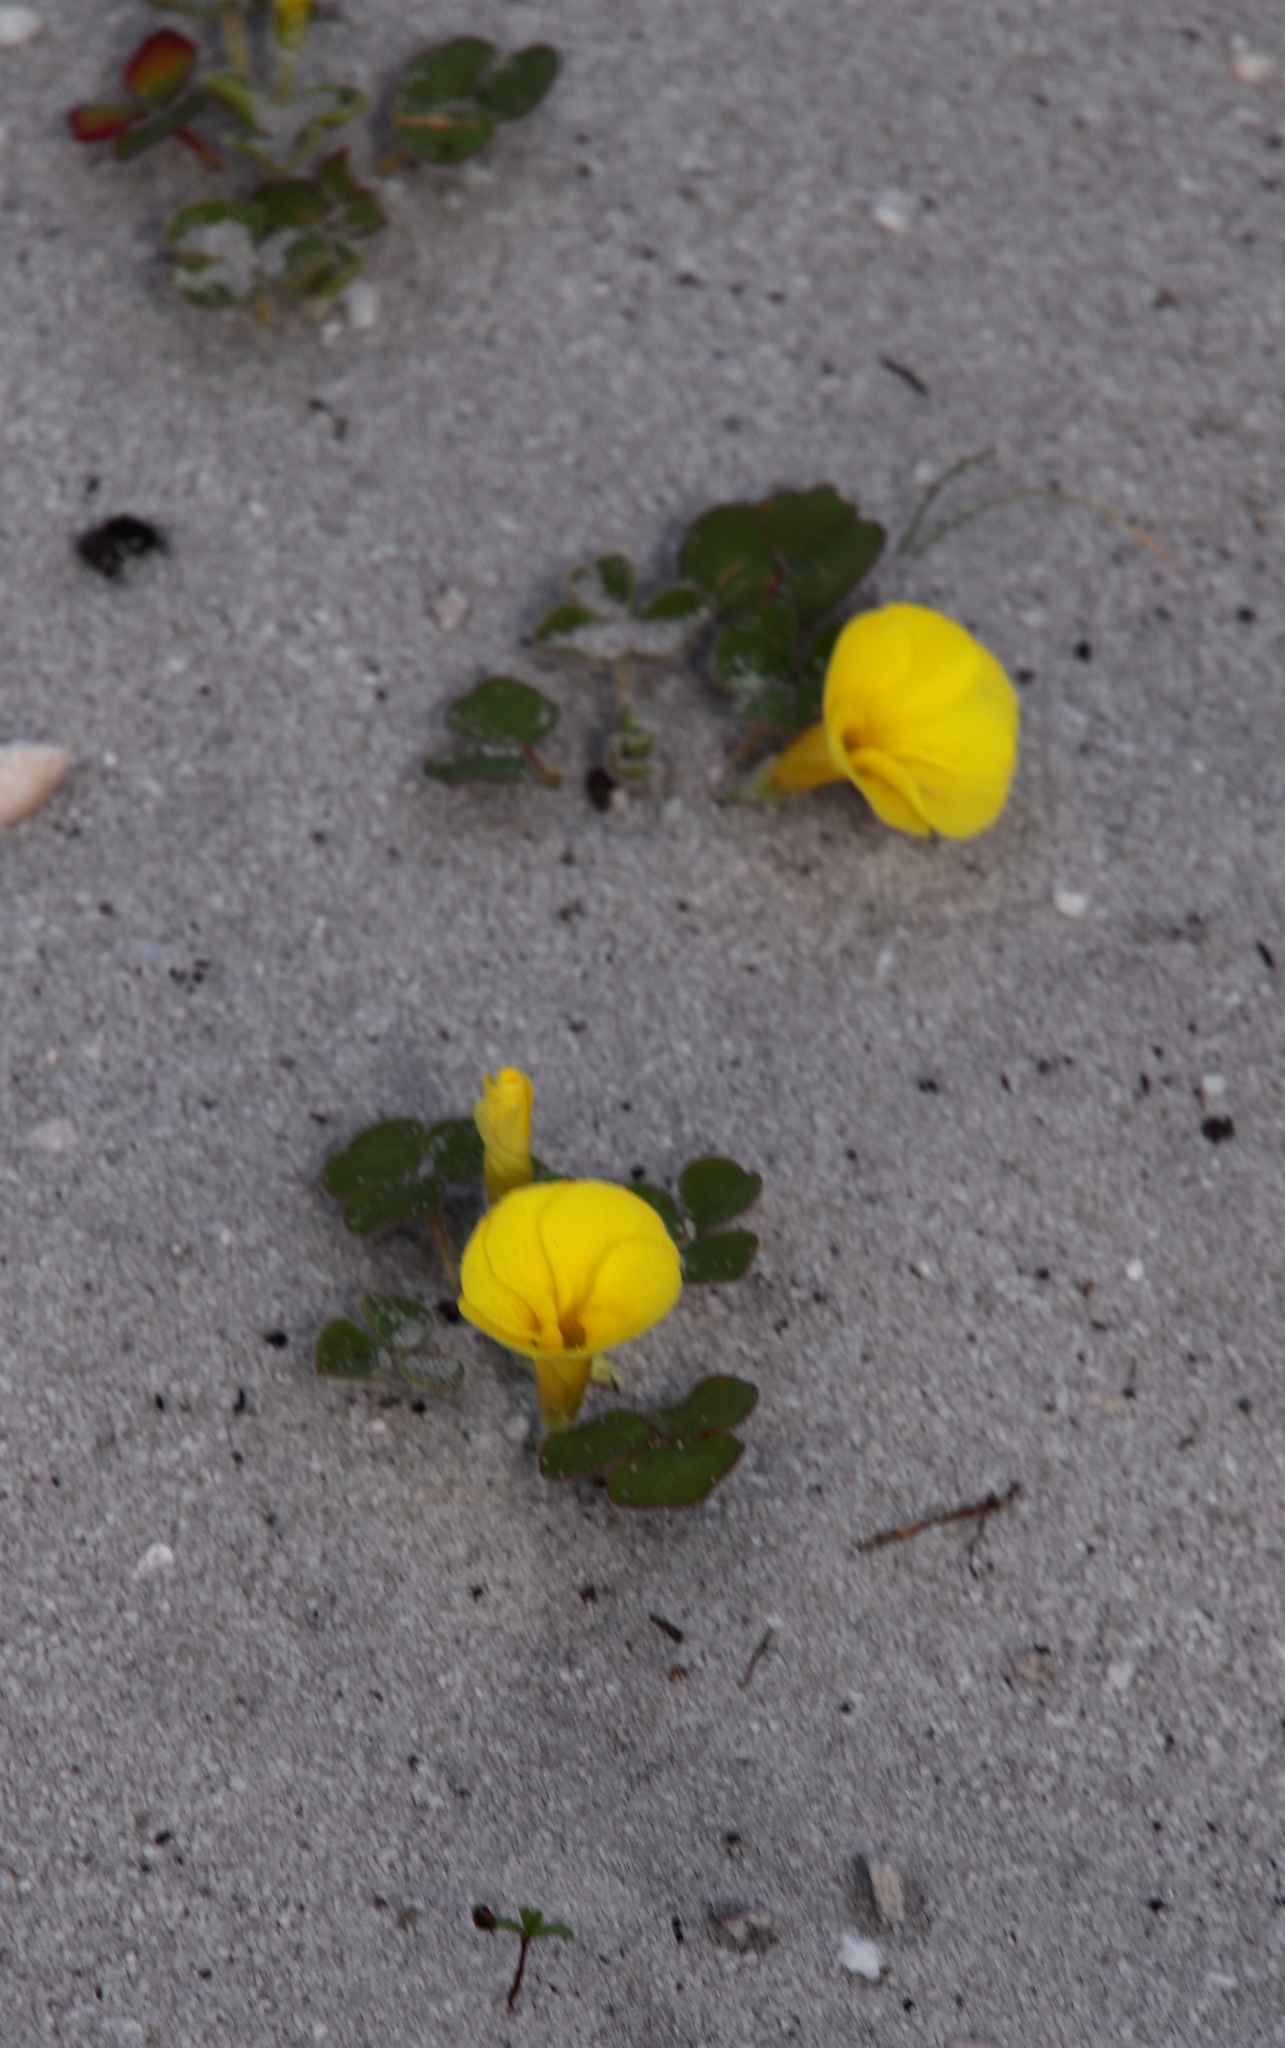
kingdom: Plantae
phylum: Tracheophyta
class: Magnoliopsida
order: Oxalidales
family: Oxalidaceae
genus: Oxalis
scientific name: Oxalis luteola
